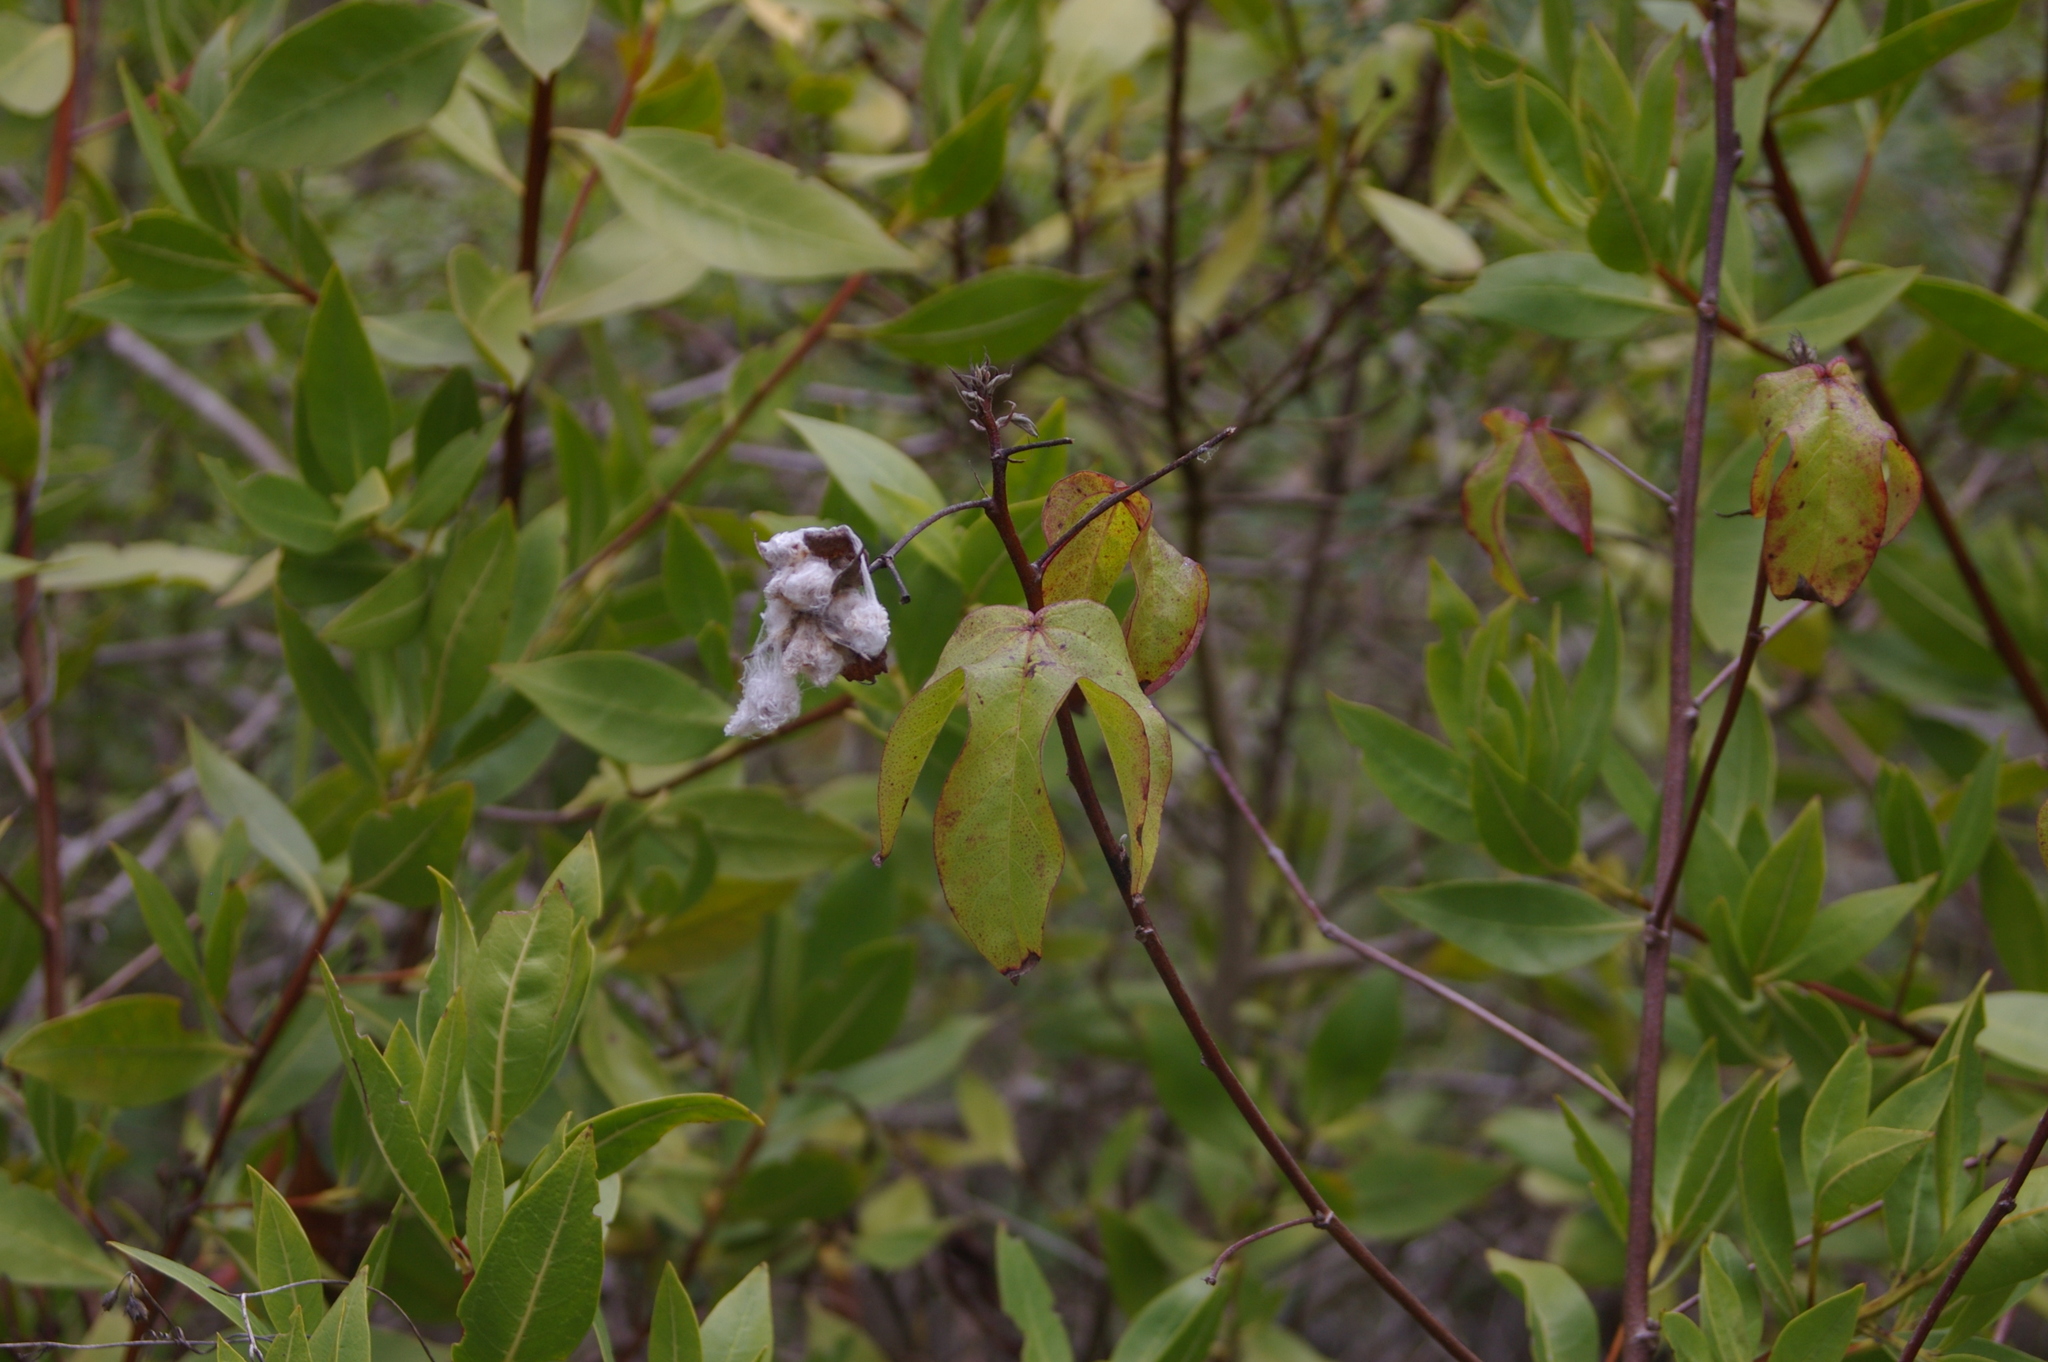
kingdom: Plantae
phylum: Tracheophyta
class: Magnoliopsida
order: Malvales
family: Malvaceae
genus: Gossypium
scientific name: Gossypium darwinii
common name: Darwin's cotton
